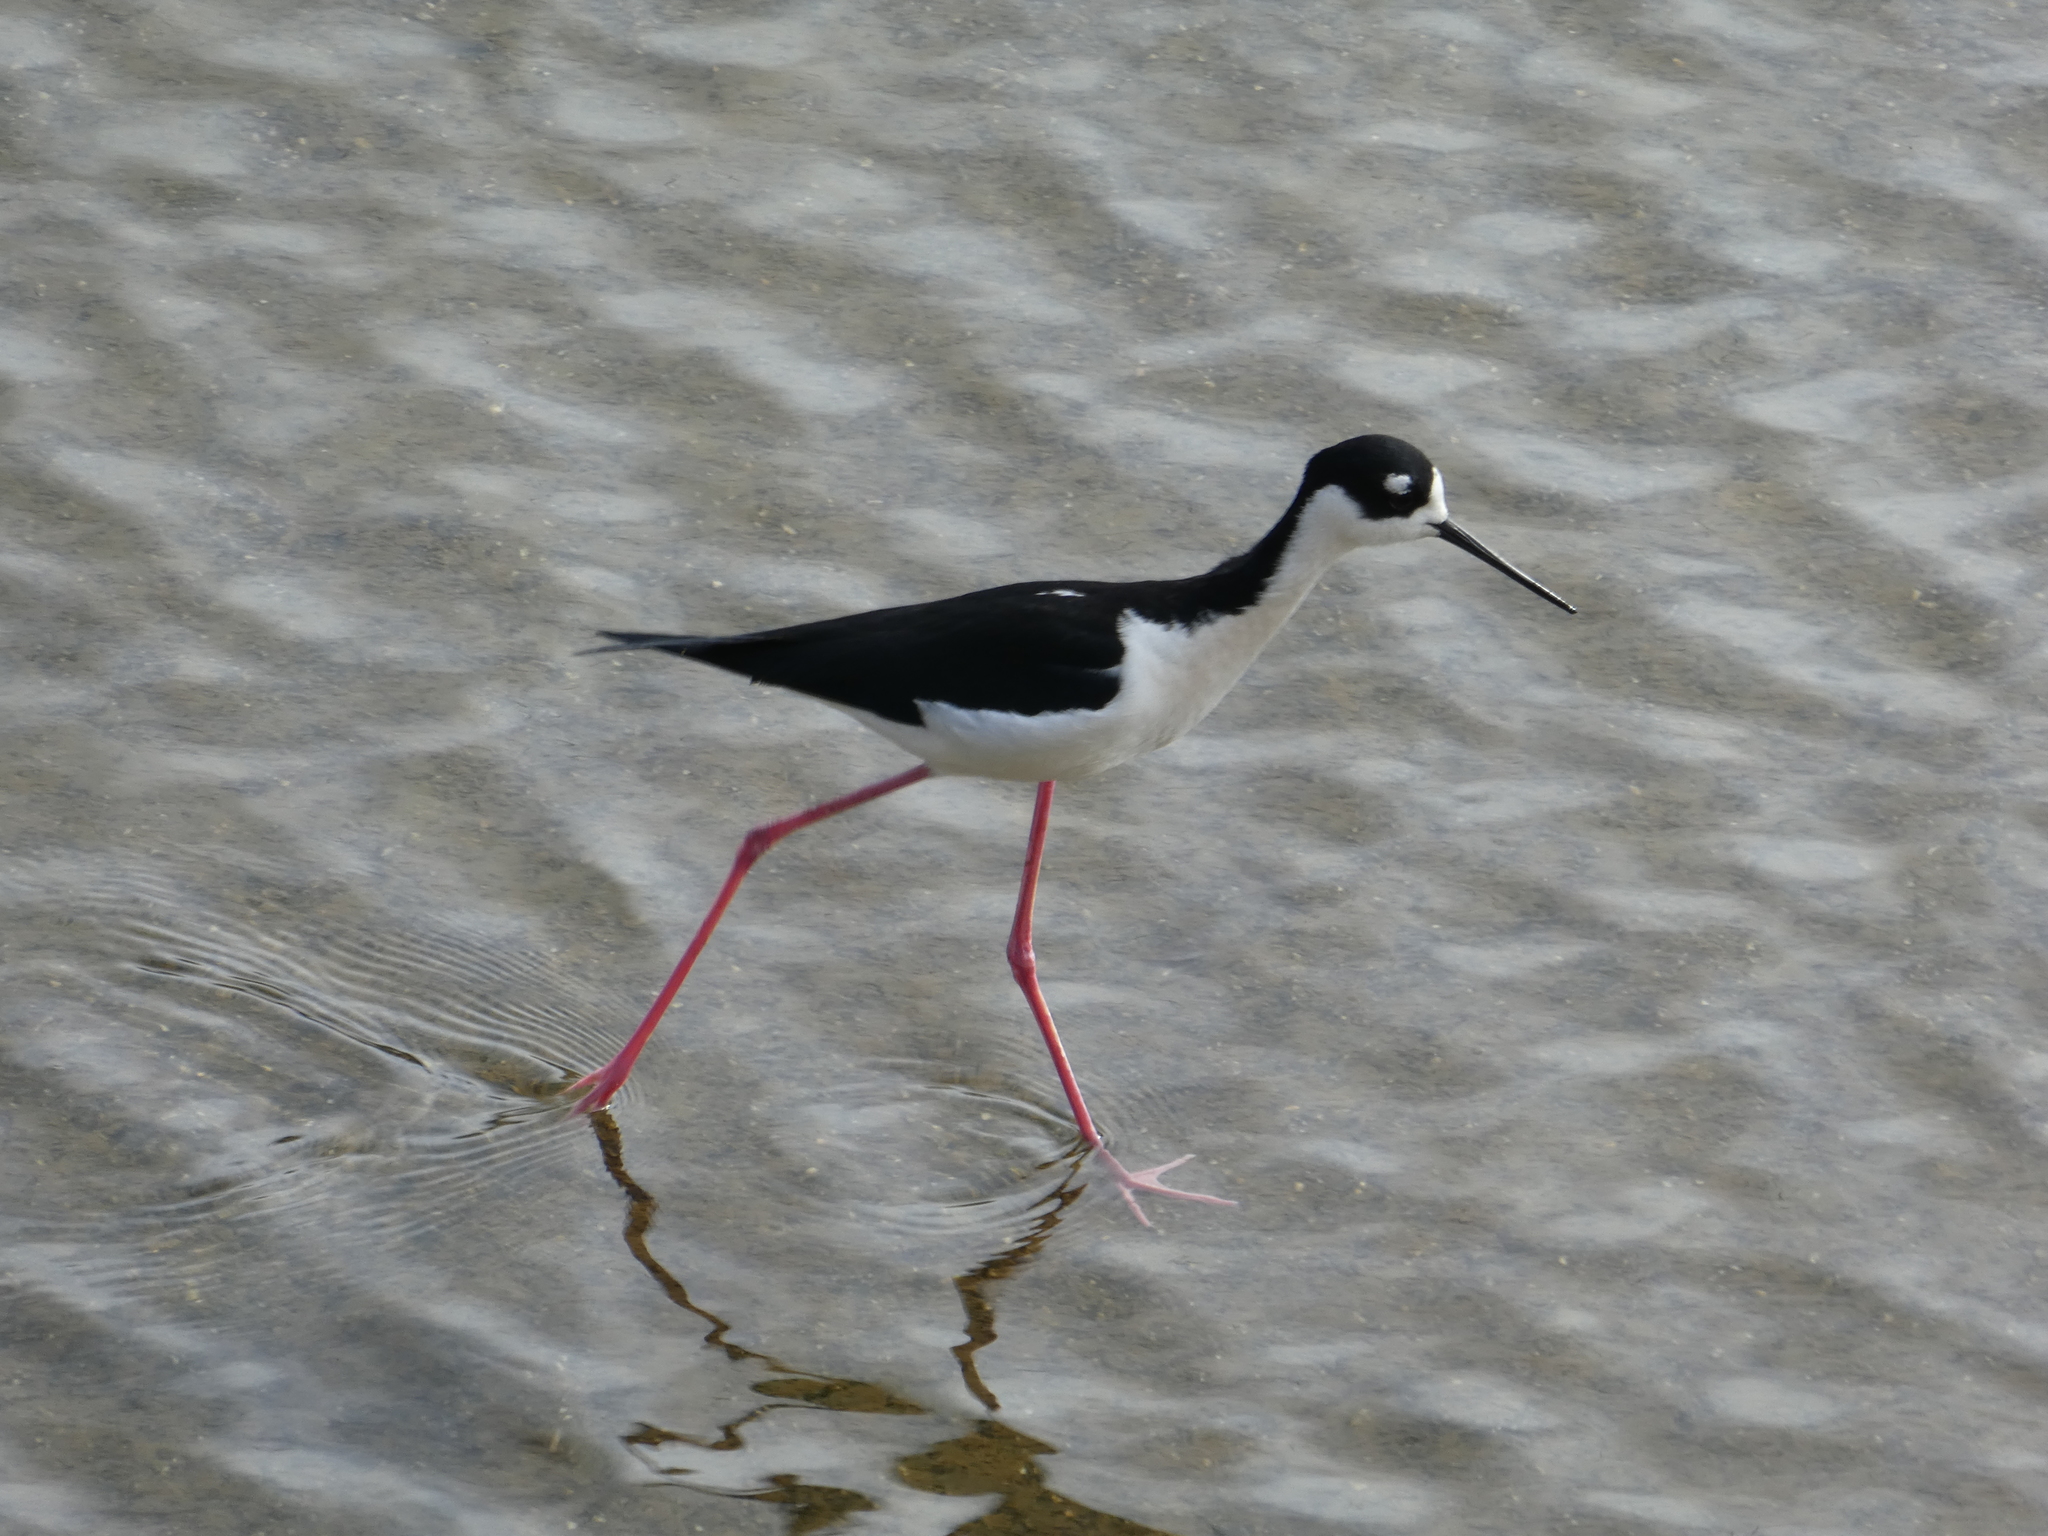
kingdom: Animalia
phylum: Chordata
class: Aves
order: Charadriiformes
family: Recurvirostridae
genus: Himantopus
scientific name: Himantopus mexicanus
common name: Black-necked stilt
